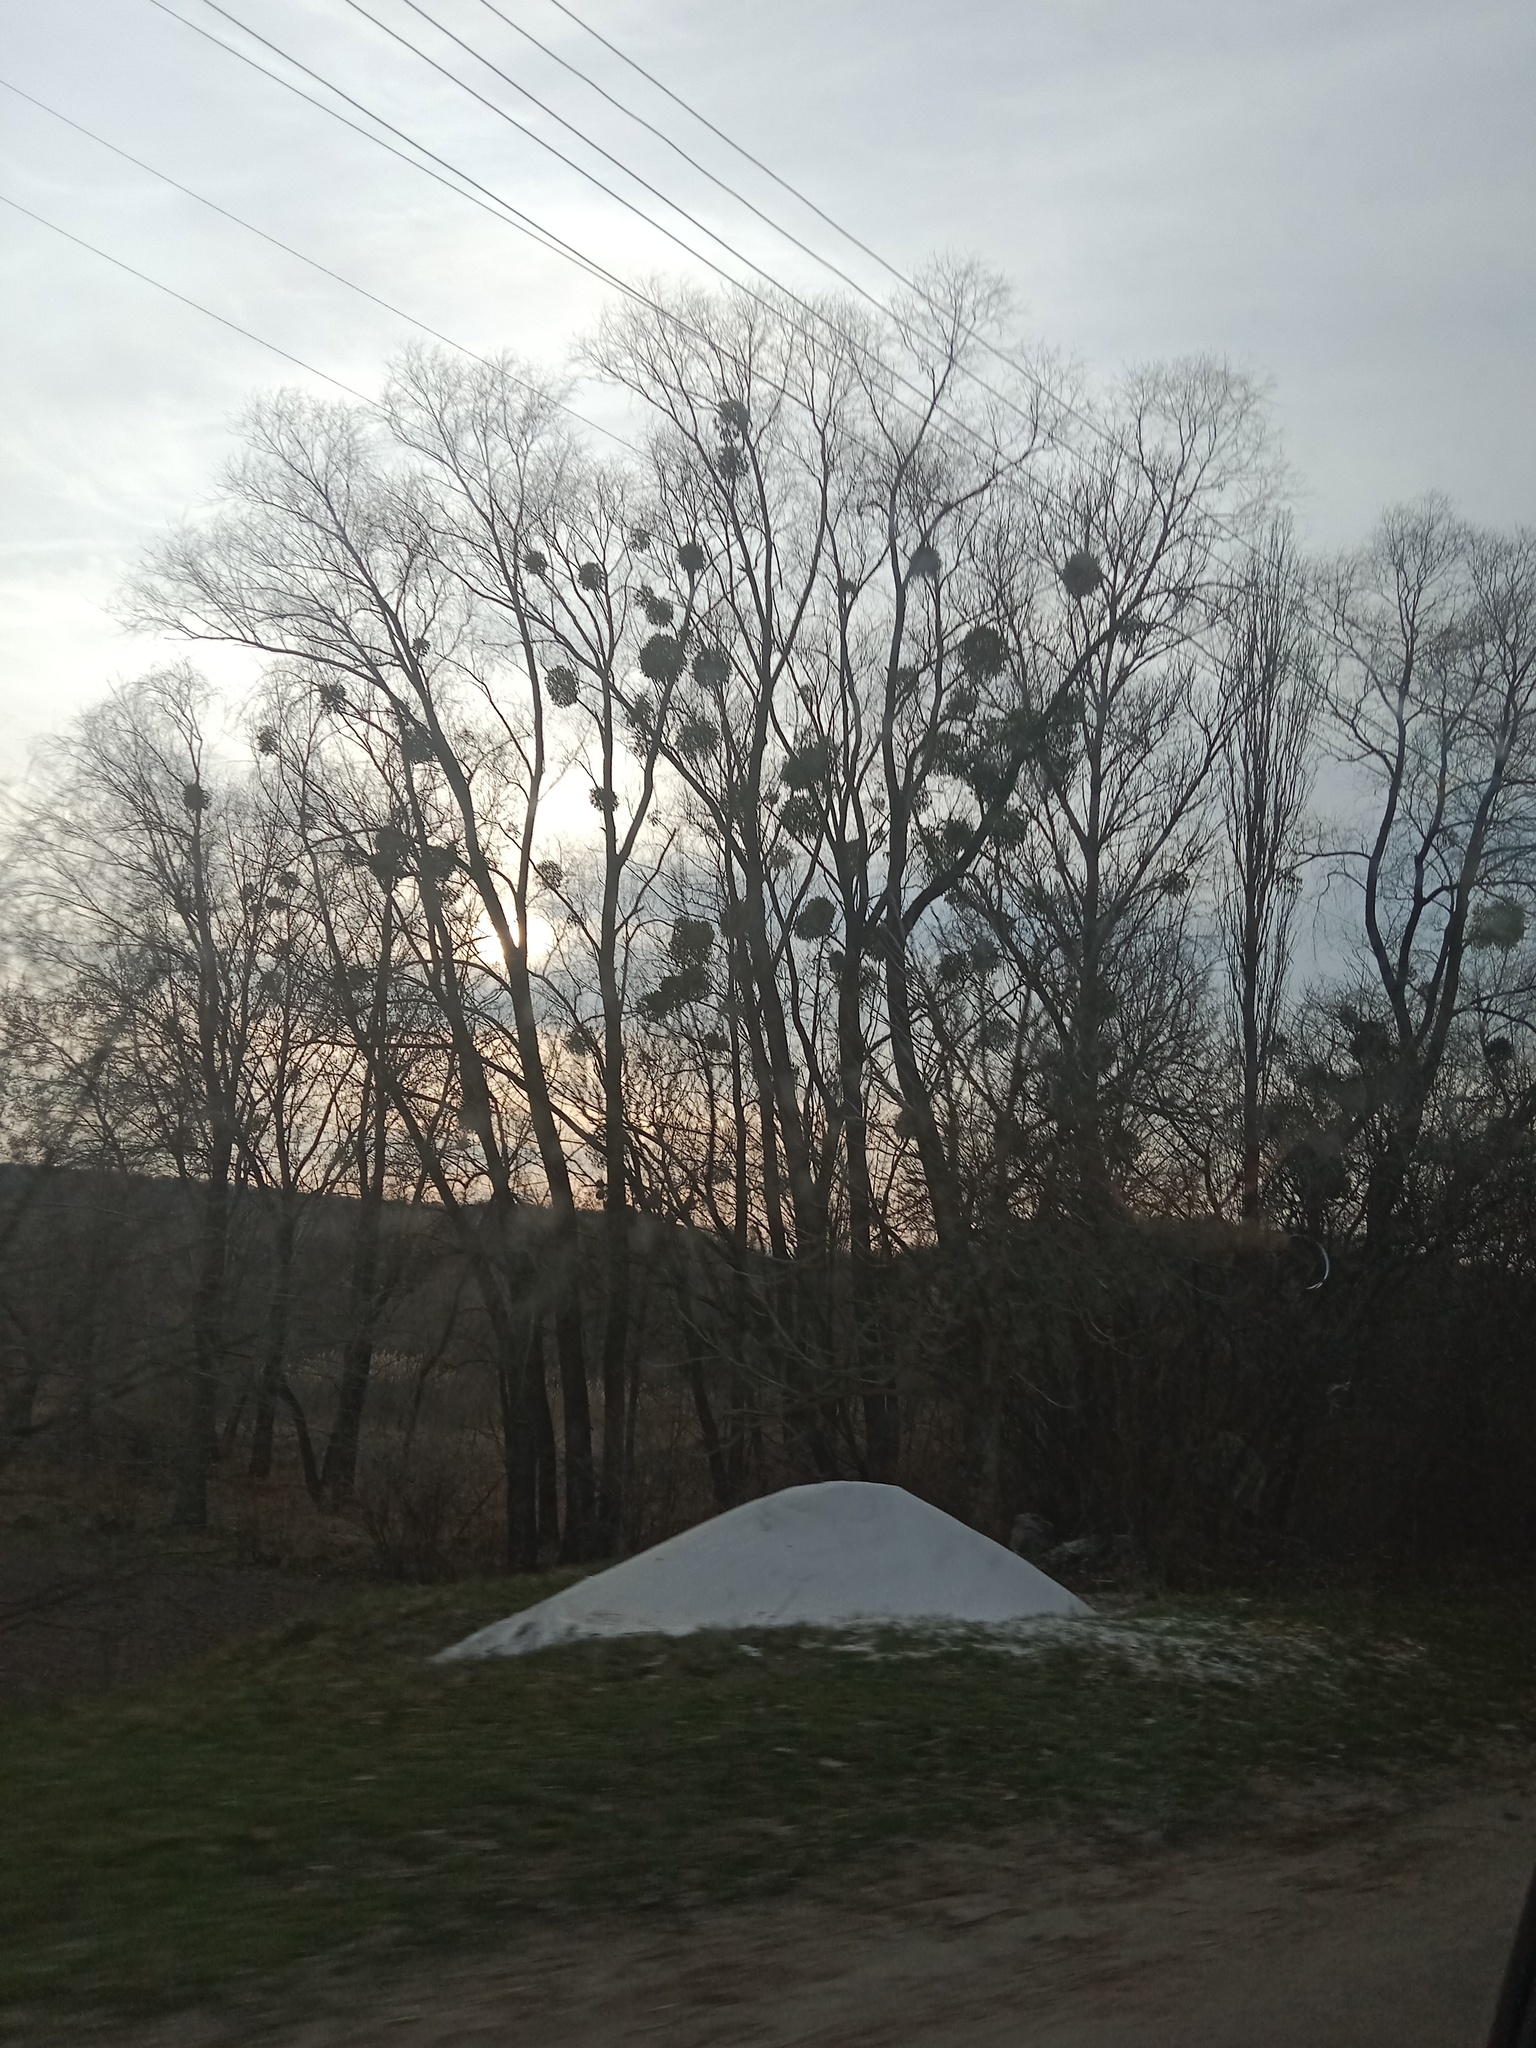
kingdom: Plantae
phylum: Tracheophyta
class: Magnoliopsida
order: Santalales
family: Viscaceae
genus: Viscum
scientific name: Viscum album
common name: Mistletoe
